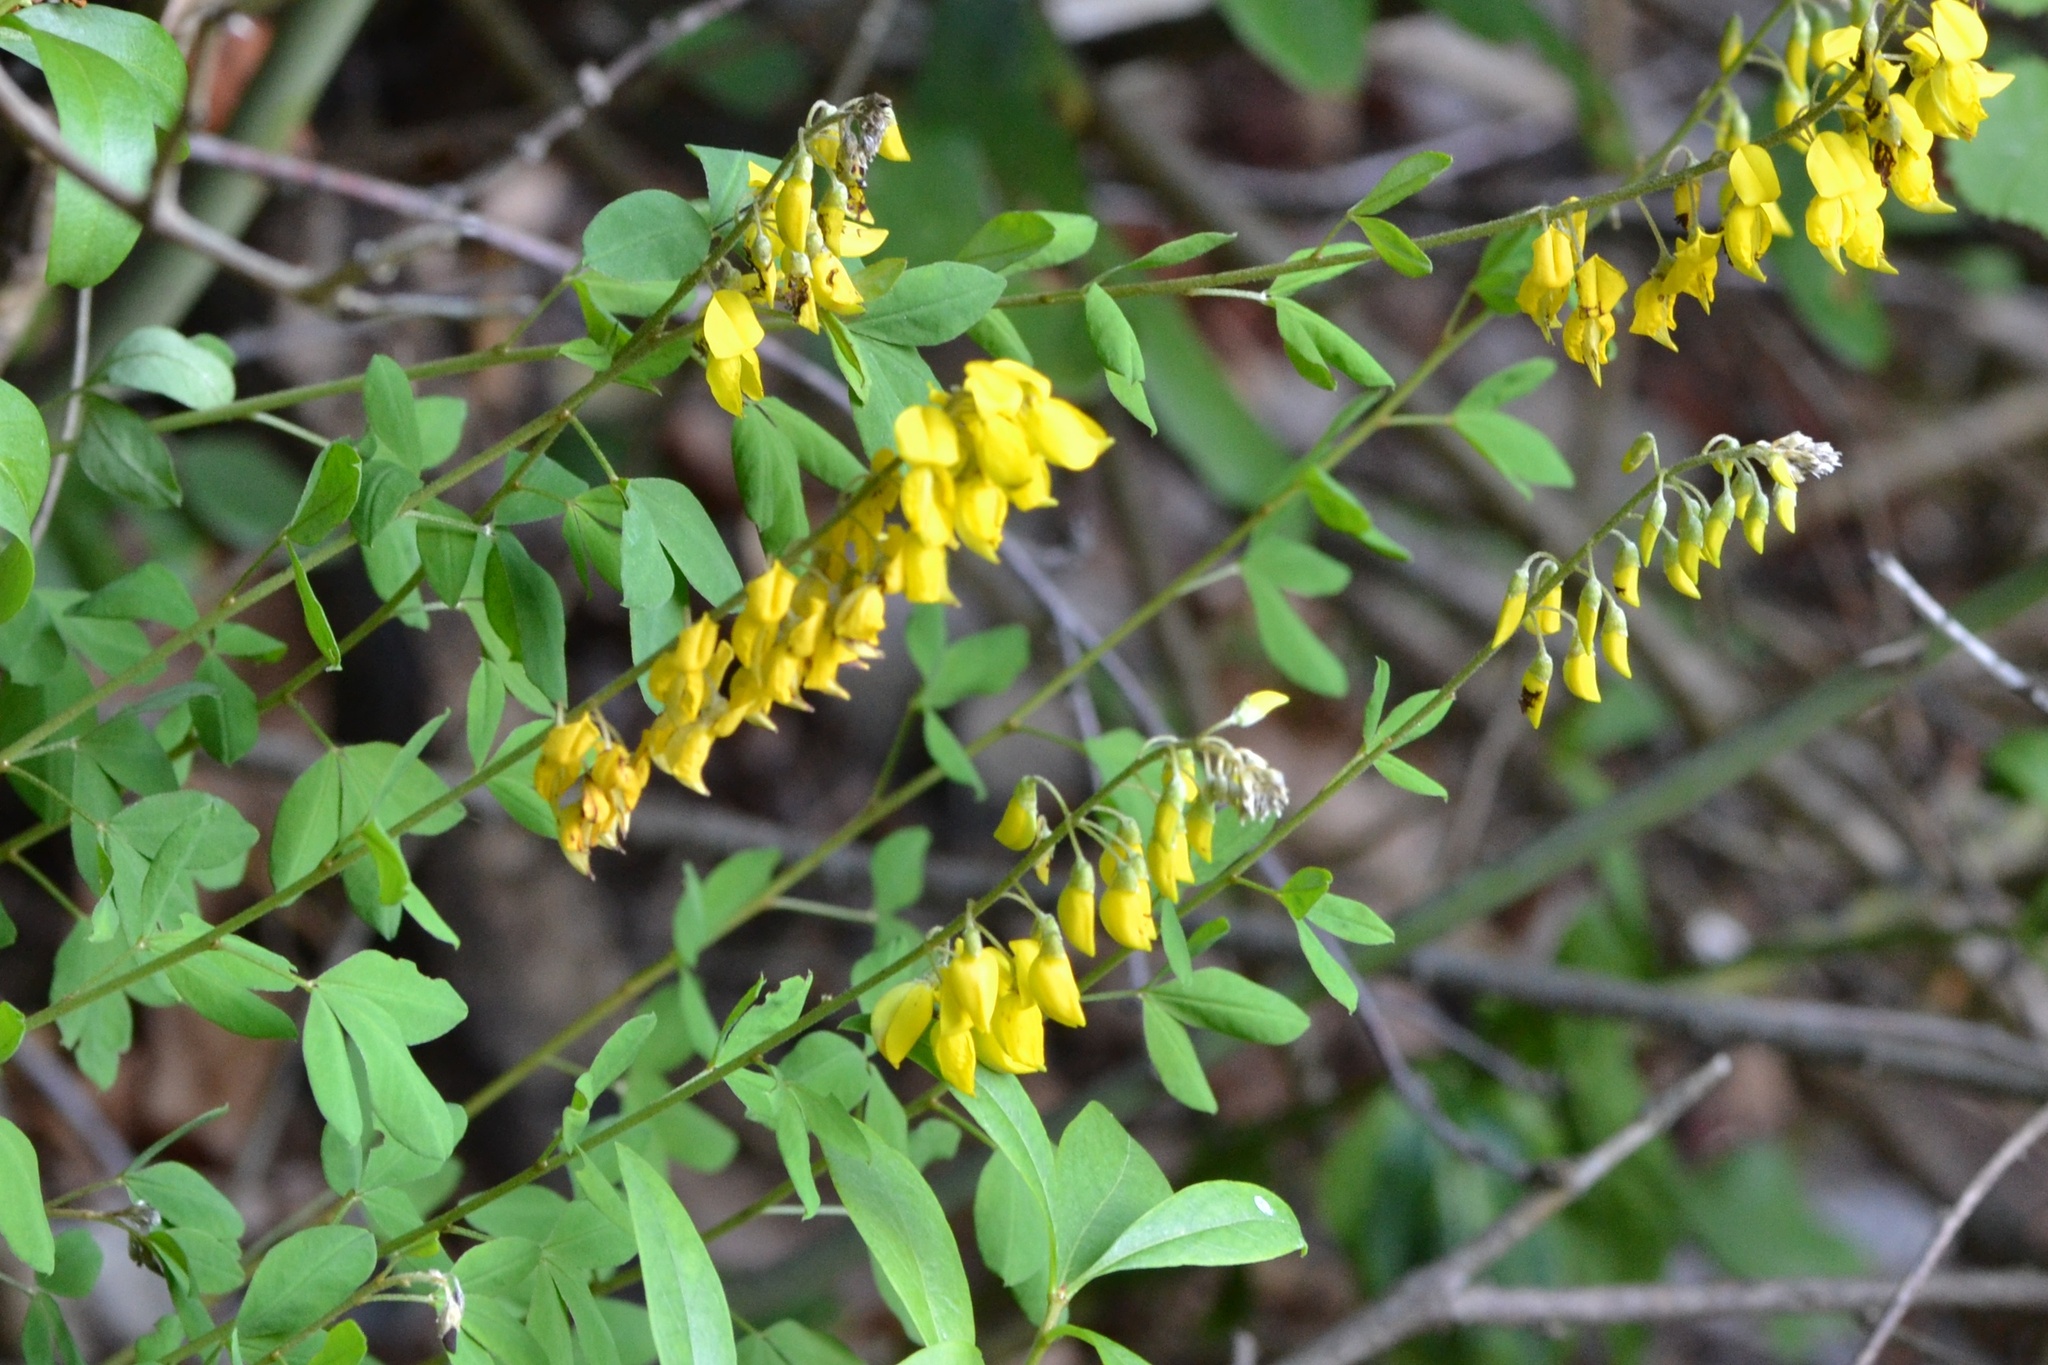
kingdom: Plantae
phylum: Tracheophyta
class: Magnoliopsida
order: Fabales
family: Fabaceae
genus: Cytisus
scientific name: Cytisus nigricans
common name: Black broom
